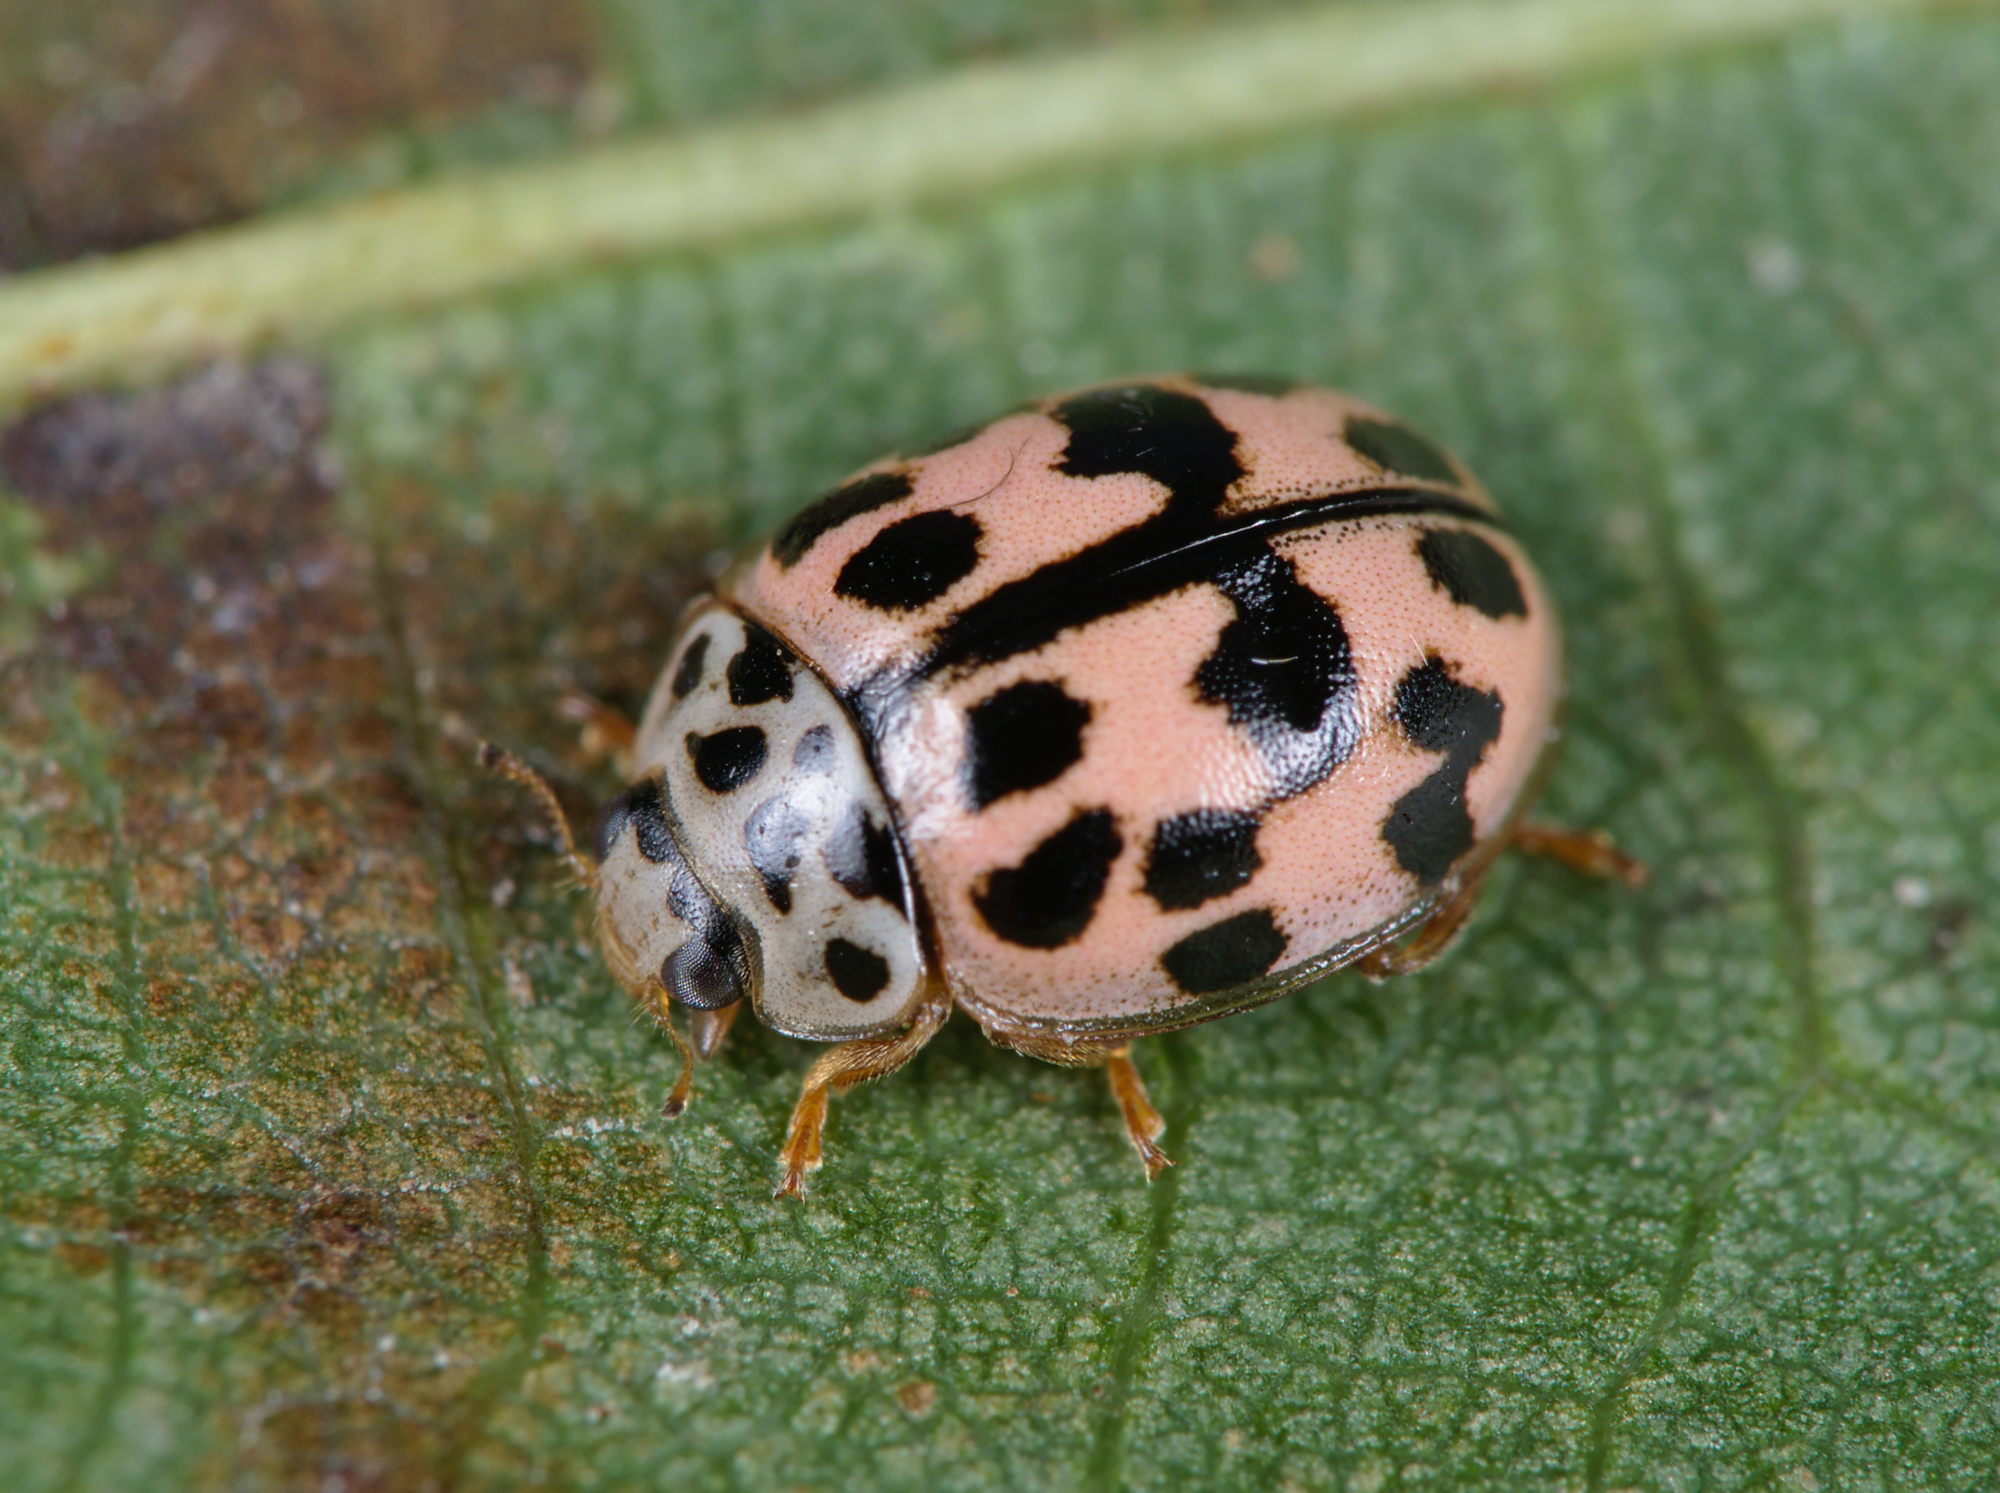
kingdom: Animalia
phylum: Arthropoda
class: Insecta
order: Coleoptera
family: Coccinellidae
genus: Oenopia
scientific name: Oenopia conglobata
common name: Ladybird beetle
